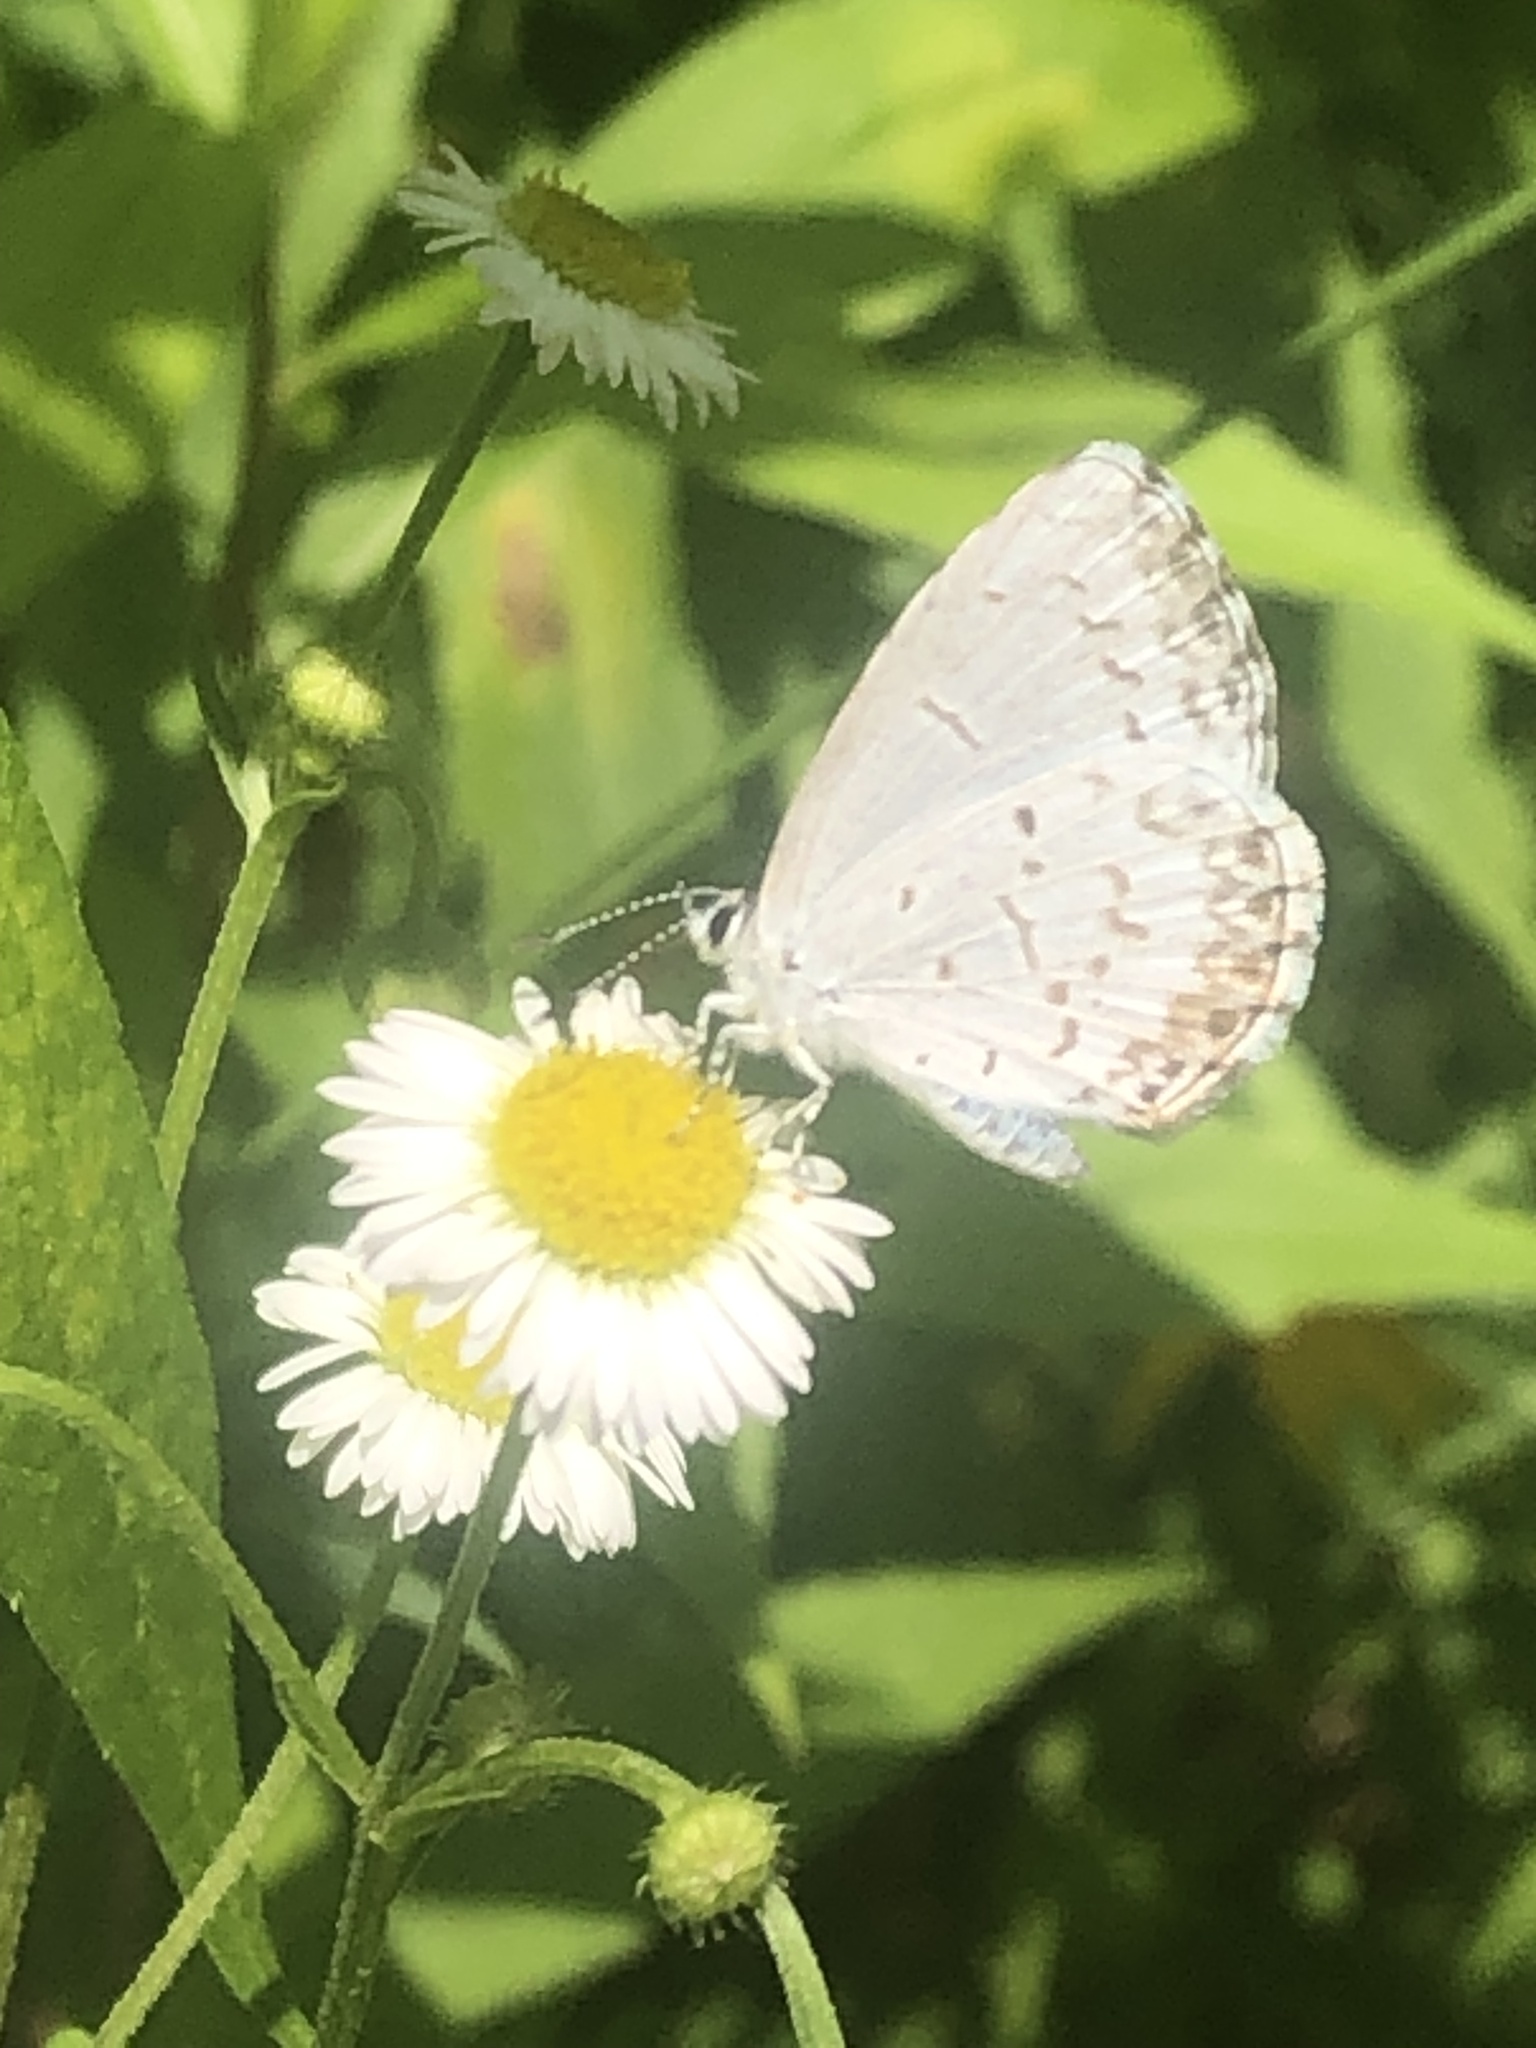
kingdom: Animalia
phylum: Arthropoda
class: Insecta
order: Lepidoptera
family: Lycaenidae
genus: Cyaniris
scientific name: Cyaniris neglecta
